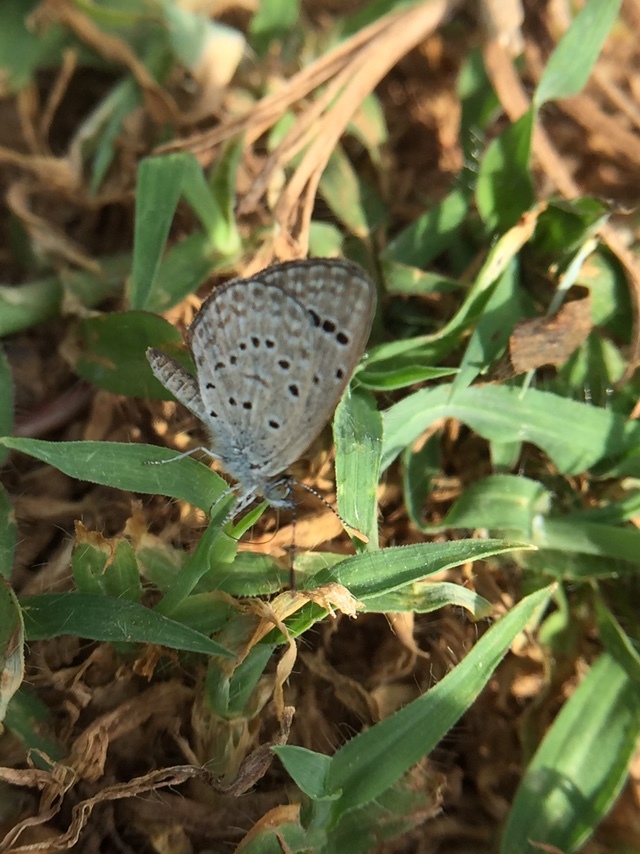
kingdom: Animalia
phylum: Arthropoda
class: Insecta
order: Lepidoptera
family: Lycaenidae
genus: Zizeeria
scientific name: Zizeeria karsandra
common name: Dark grass blue
